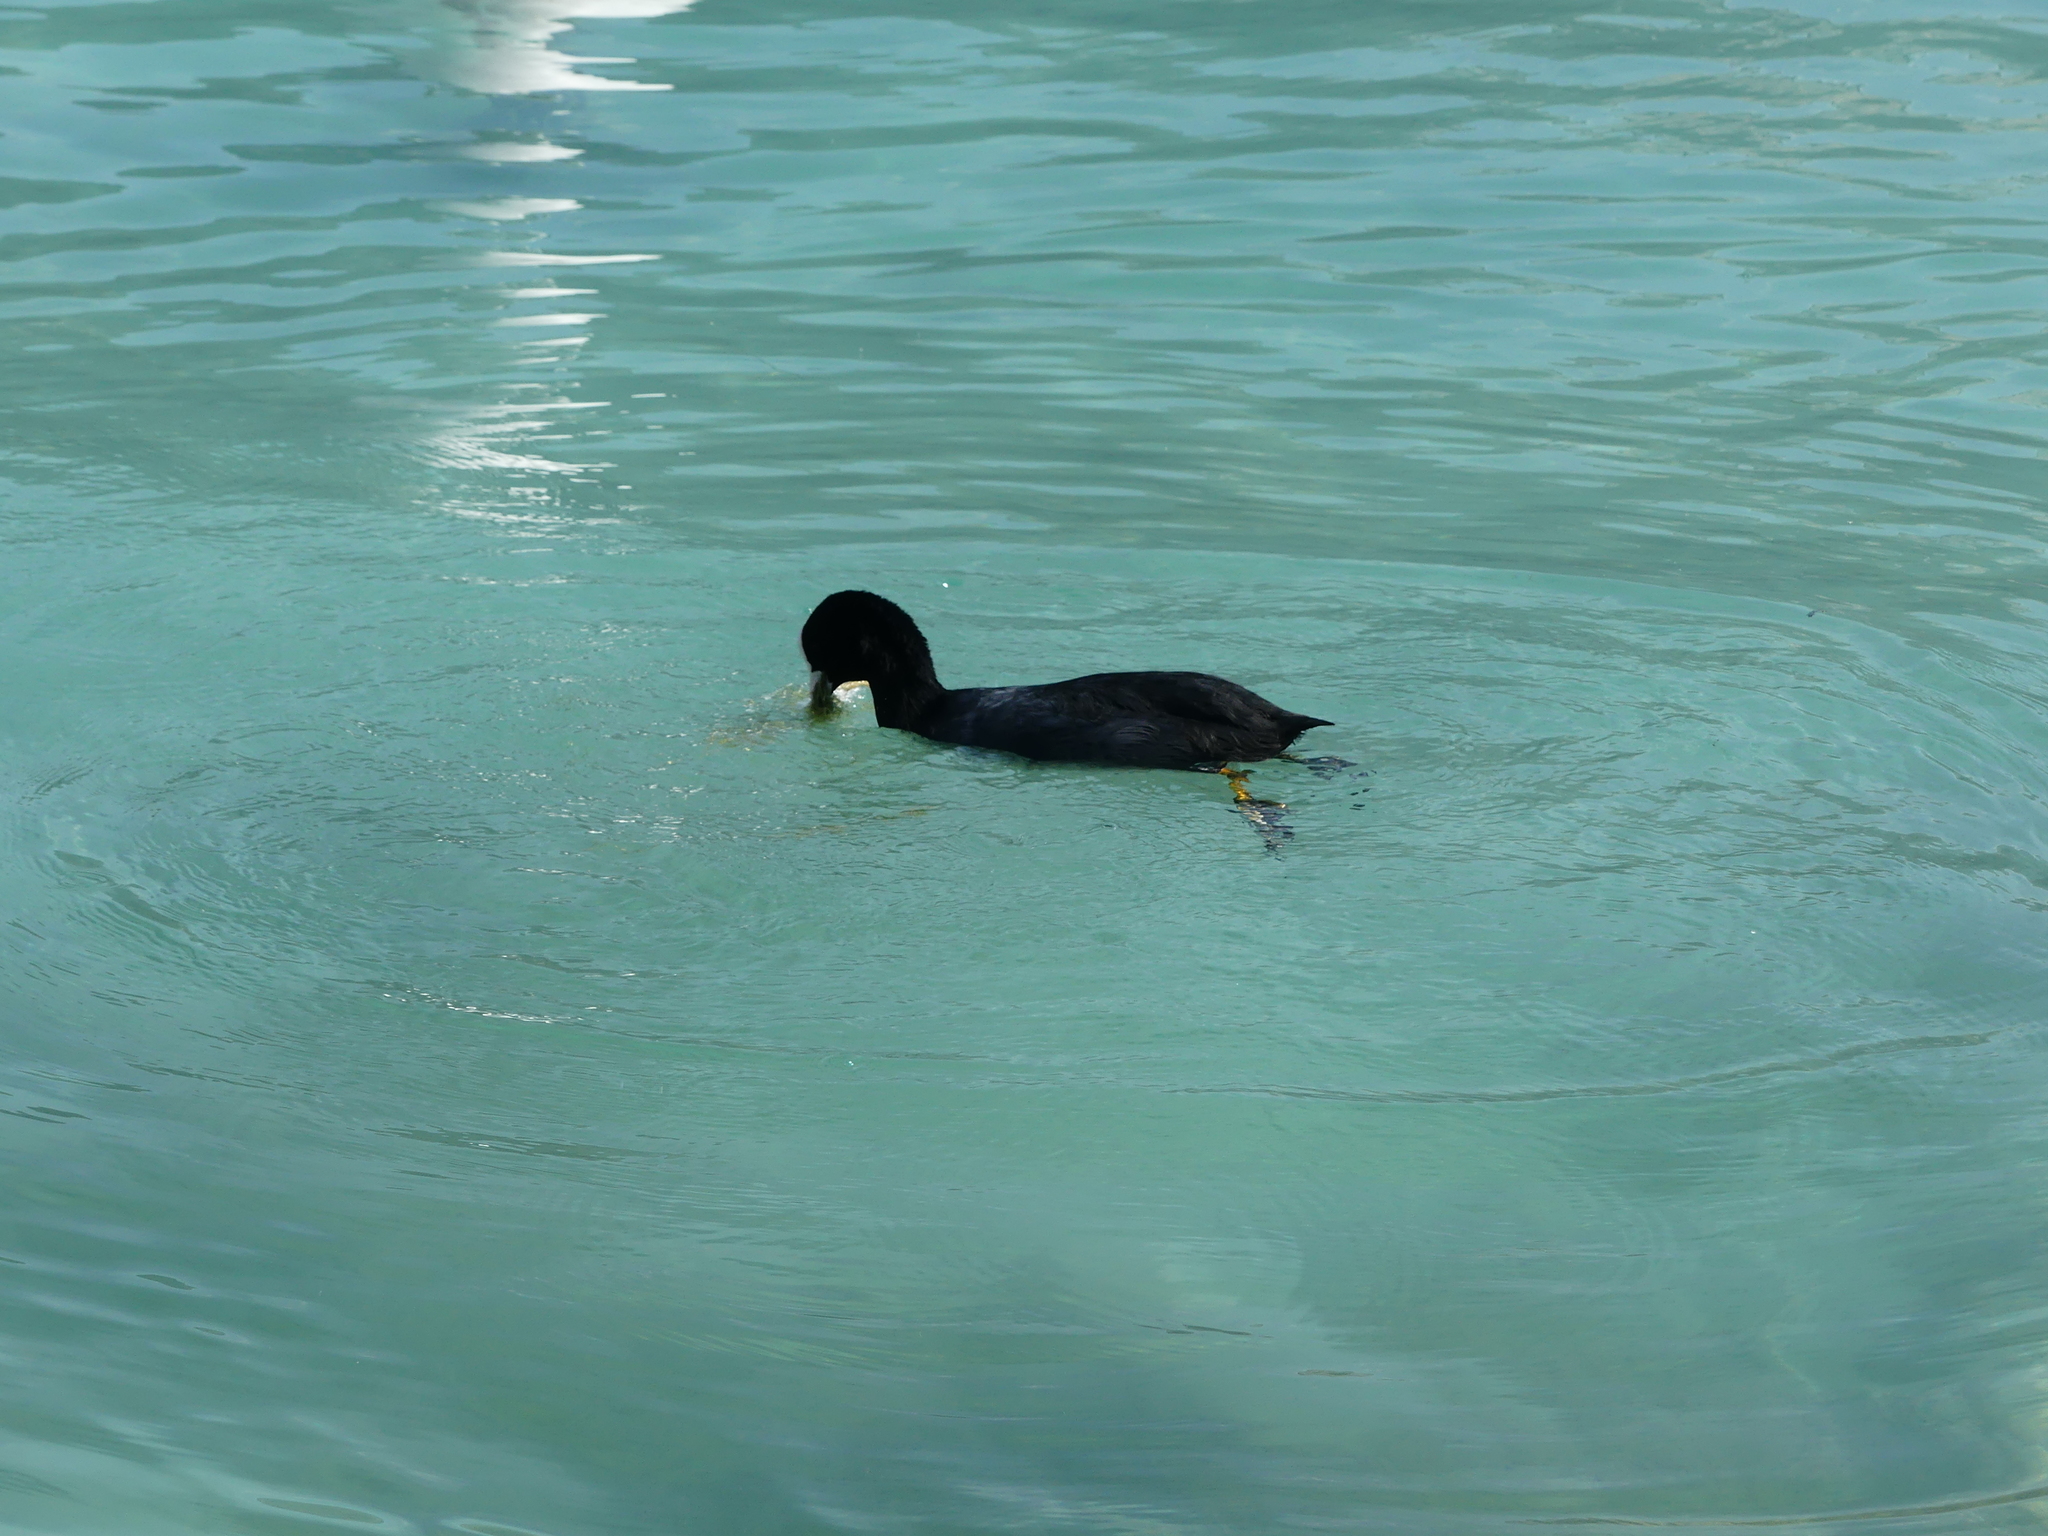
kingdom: Animalia
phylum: Chordata
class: Aves
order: Gruiformes
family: Rallidae
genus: Fulica
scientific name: Fulica atra
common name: Eurasian coot
